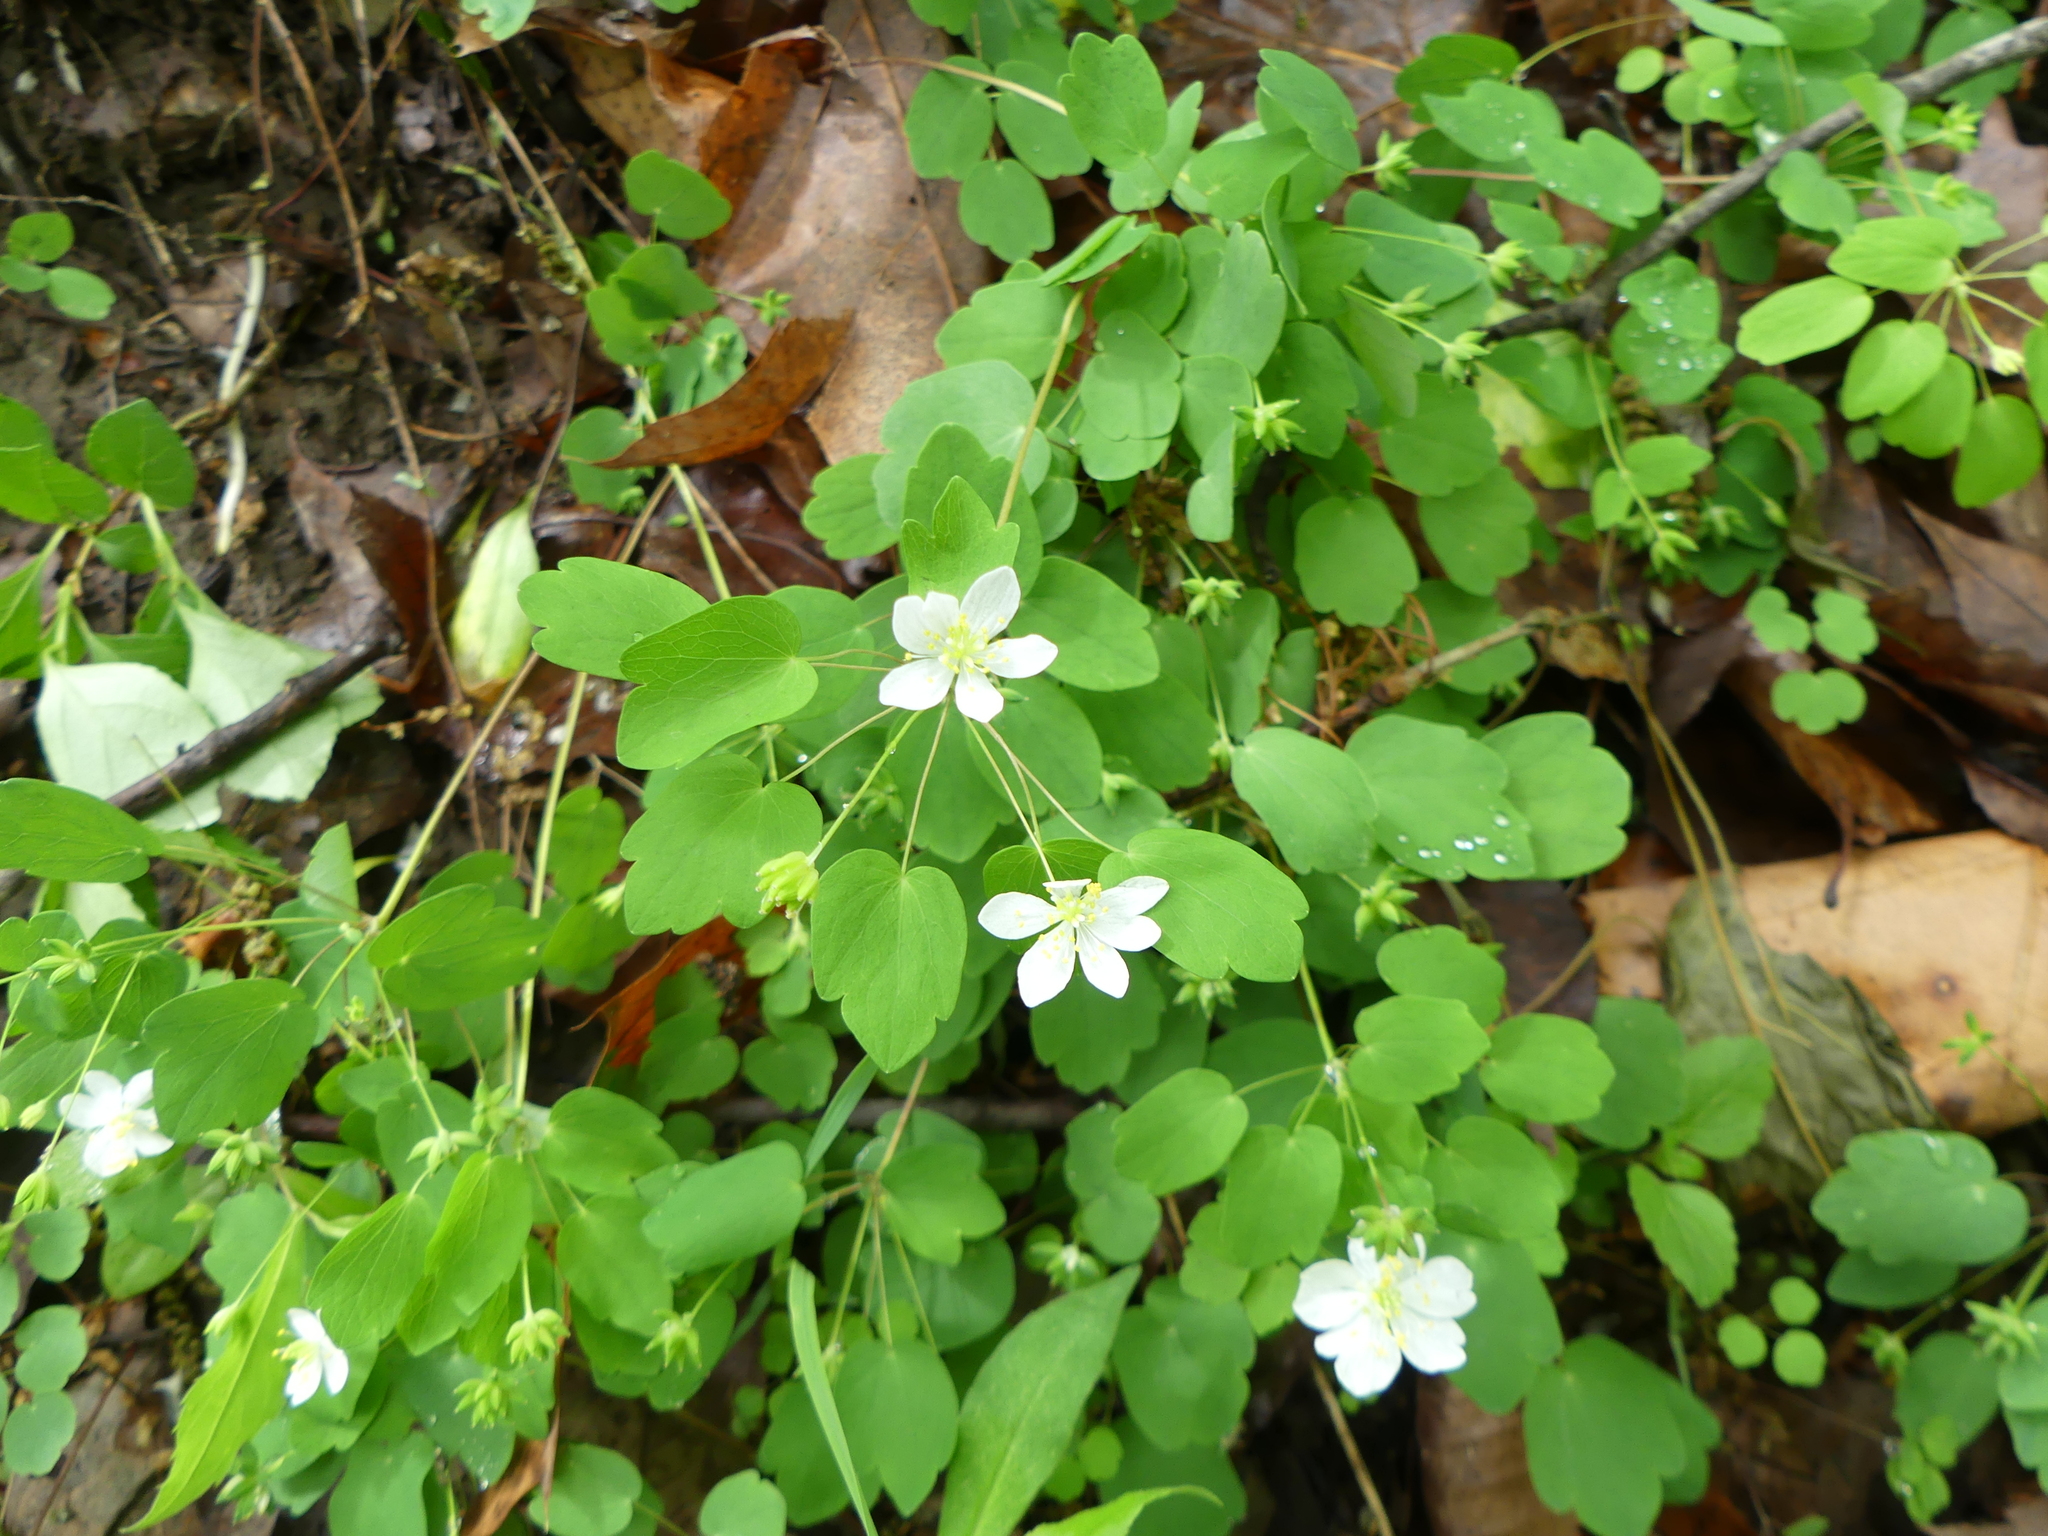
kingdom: Plantae
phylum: Tracheophyta
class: Magnoliopsida
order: Ranunculales
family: Ranunculaceae
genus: Thalictrum
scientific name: Thalictrum thalictroides
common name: Rue-anemone
